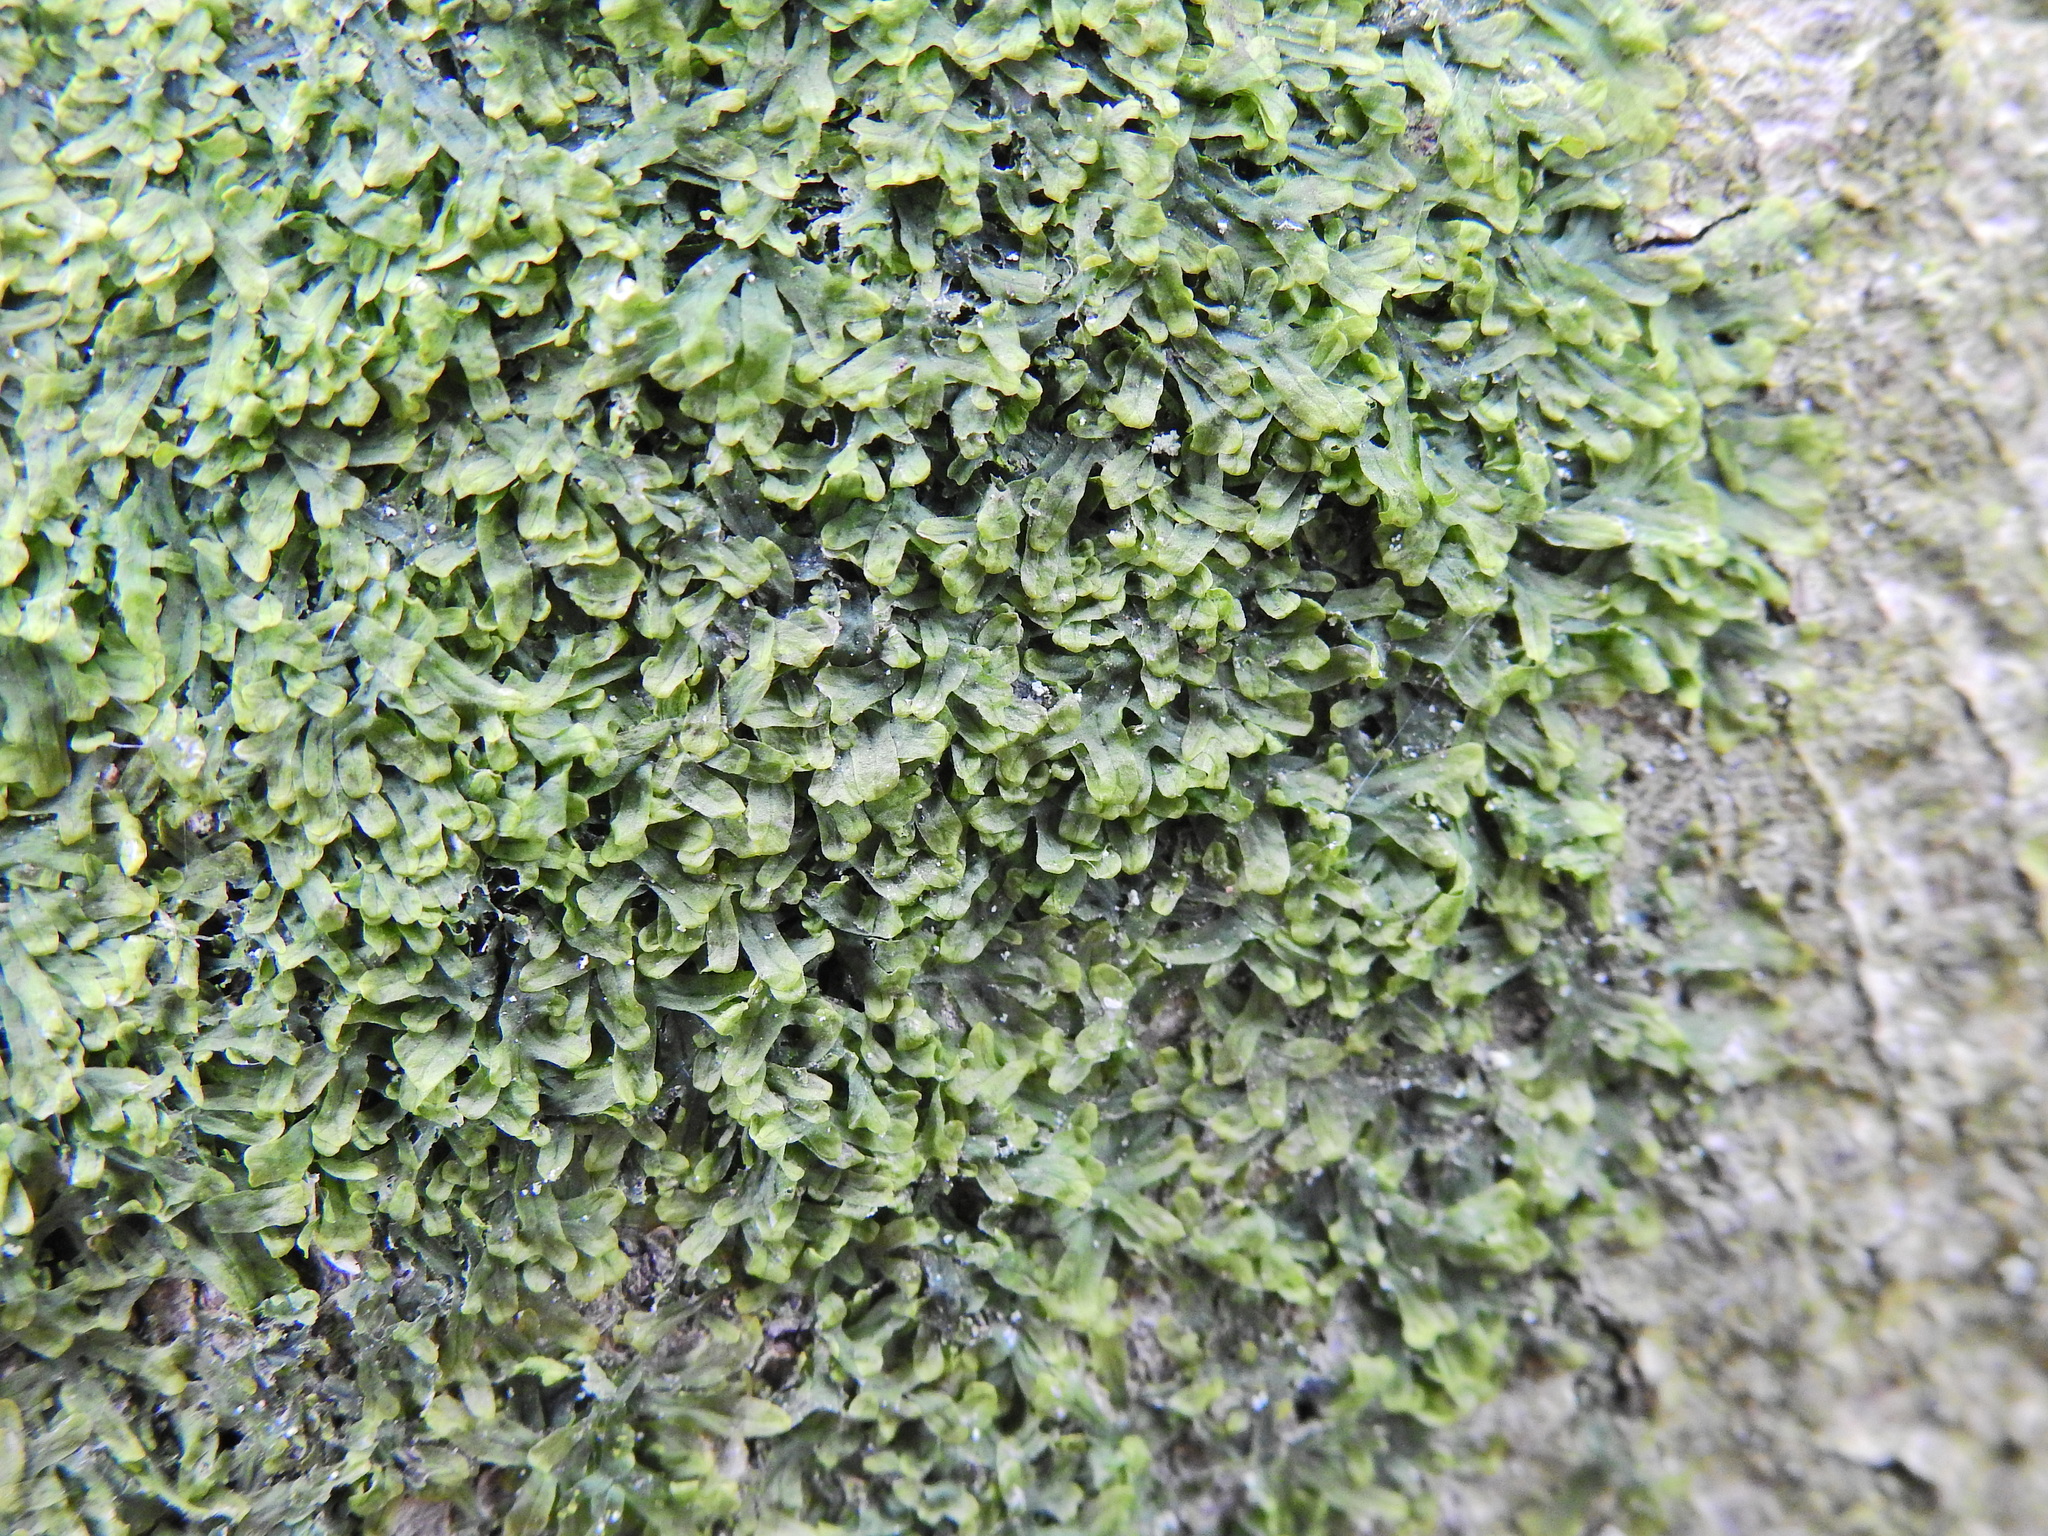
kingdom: Plantae
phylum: Marchantiophyta
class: Jungermanniopsida
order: Metzgeriales
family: Metzgeriaceae
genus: Metzgeria
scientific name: Metzgeria furcata
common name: Forked veilwort
